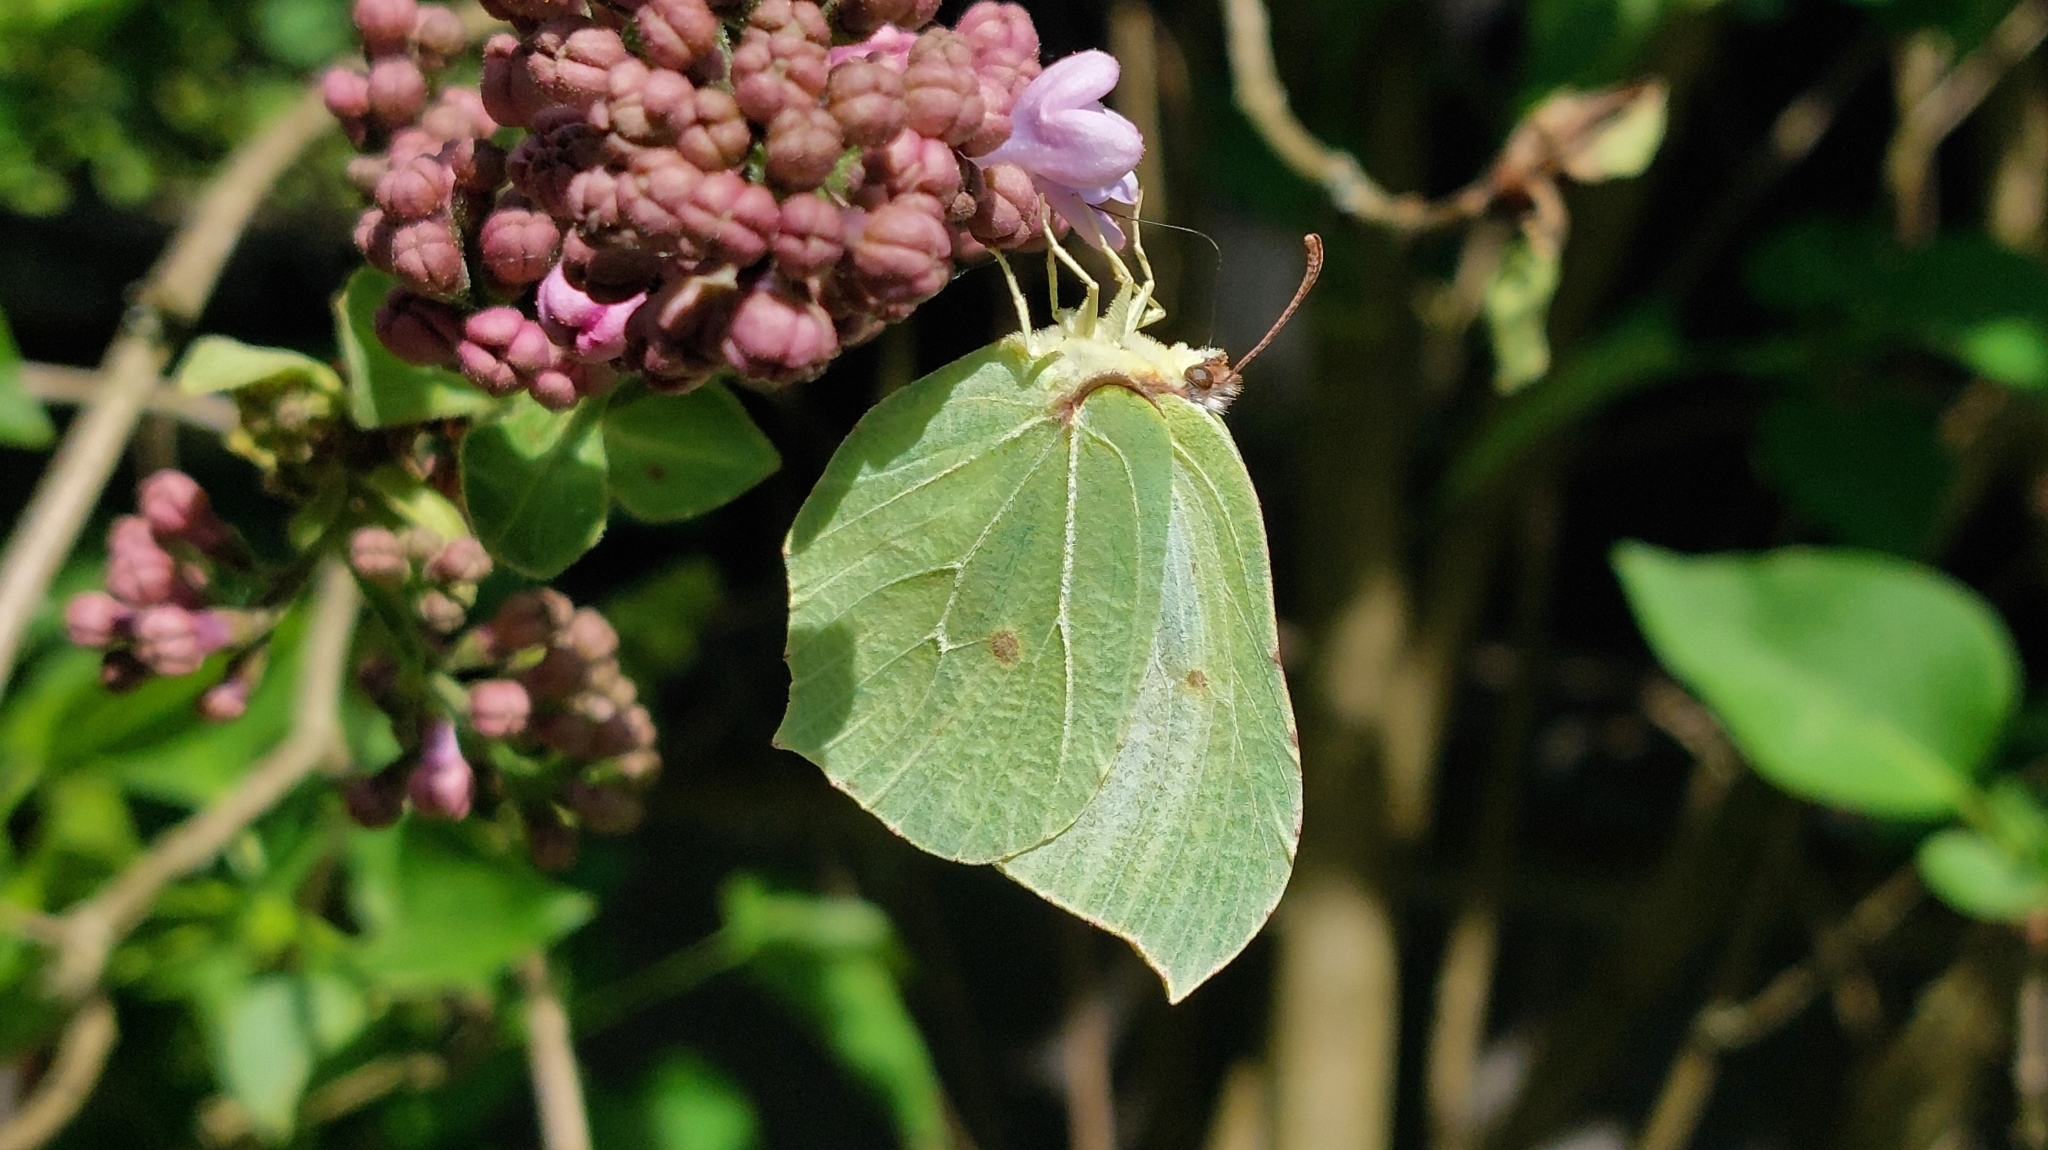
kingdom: Animalia
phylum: Arthropoda
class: Insecta
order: Lepidoptera
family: Pieridae
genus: Gonepteryx
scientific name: Gonepteryx rhamni
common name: Brimstone
